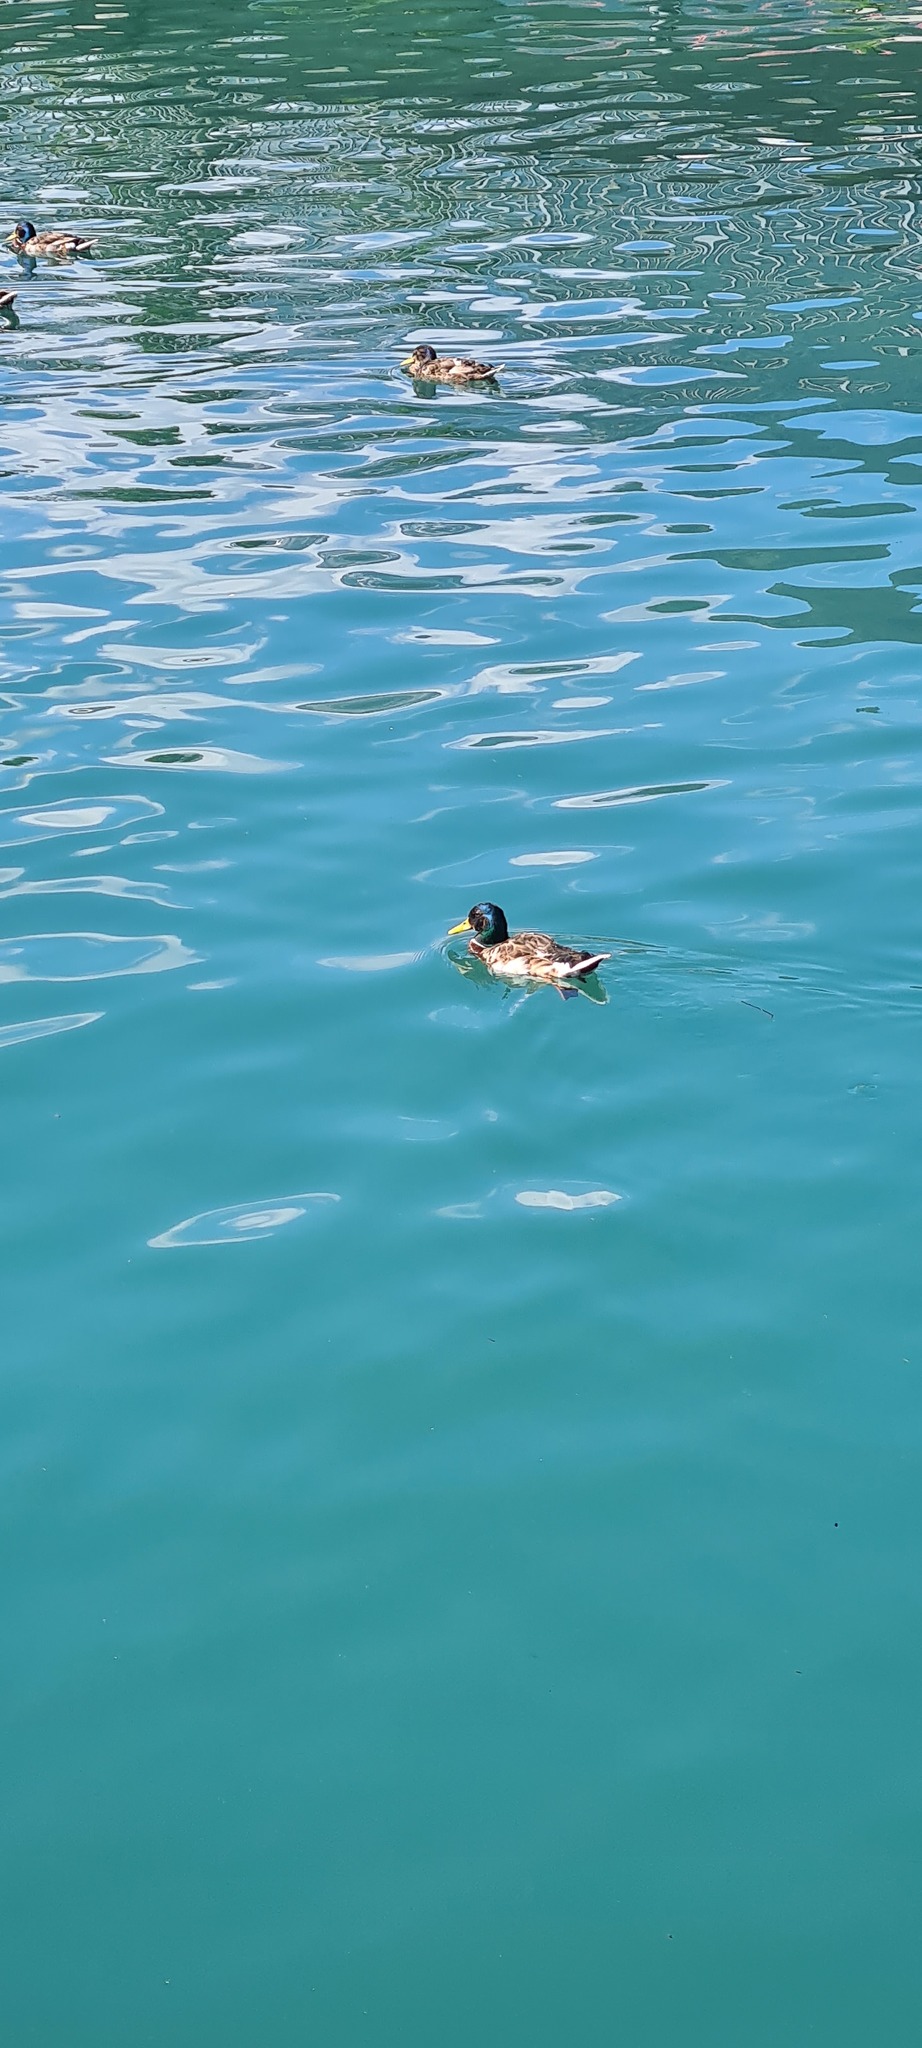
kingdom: Animalia
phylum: Chordata
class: Aves
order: Anseriformes
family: Anatidae
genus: Anas
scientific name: Anas platyrhynchos
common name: Mallard
